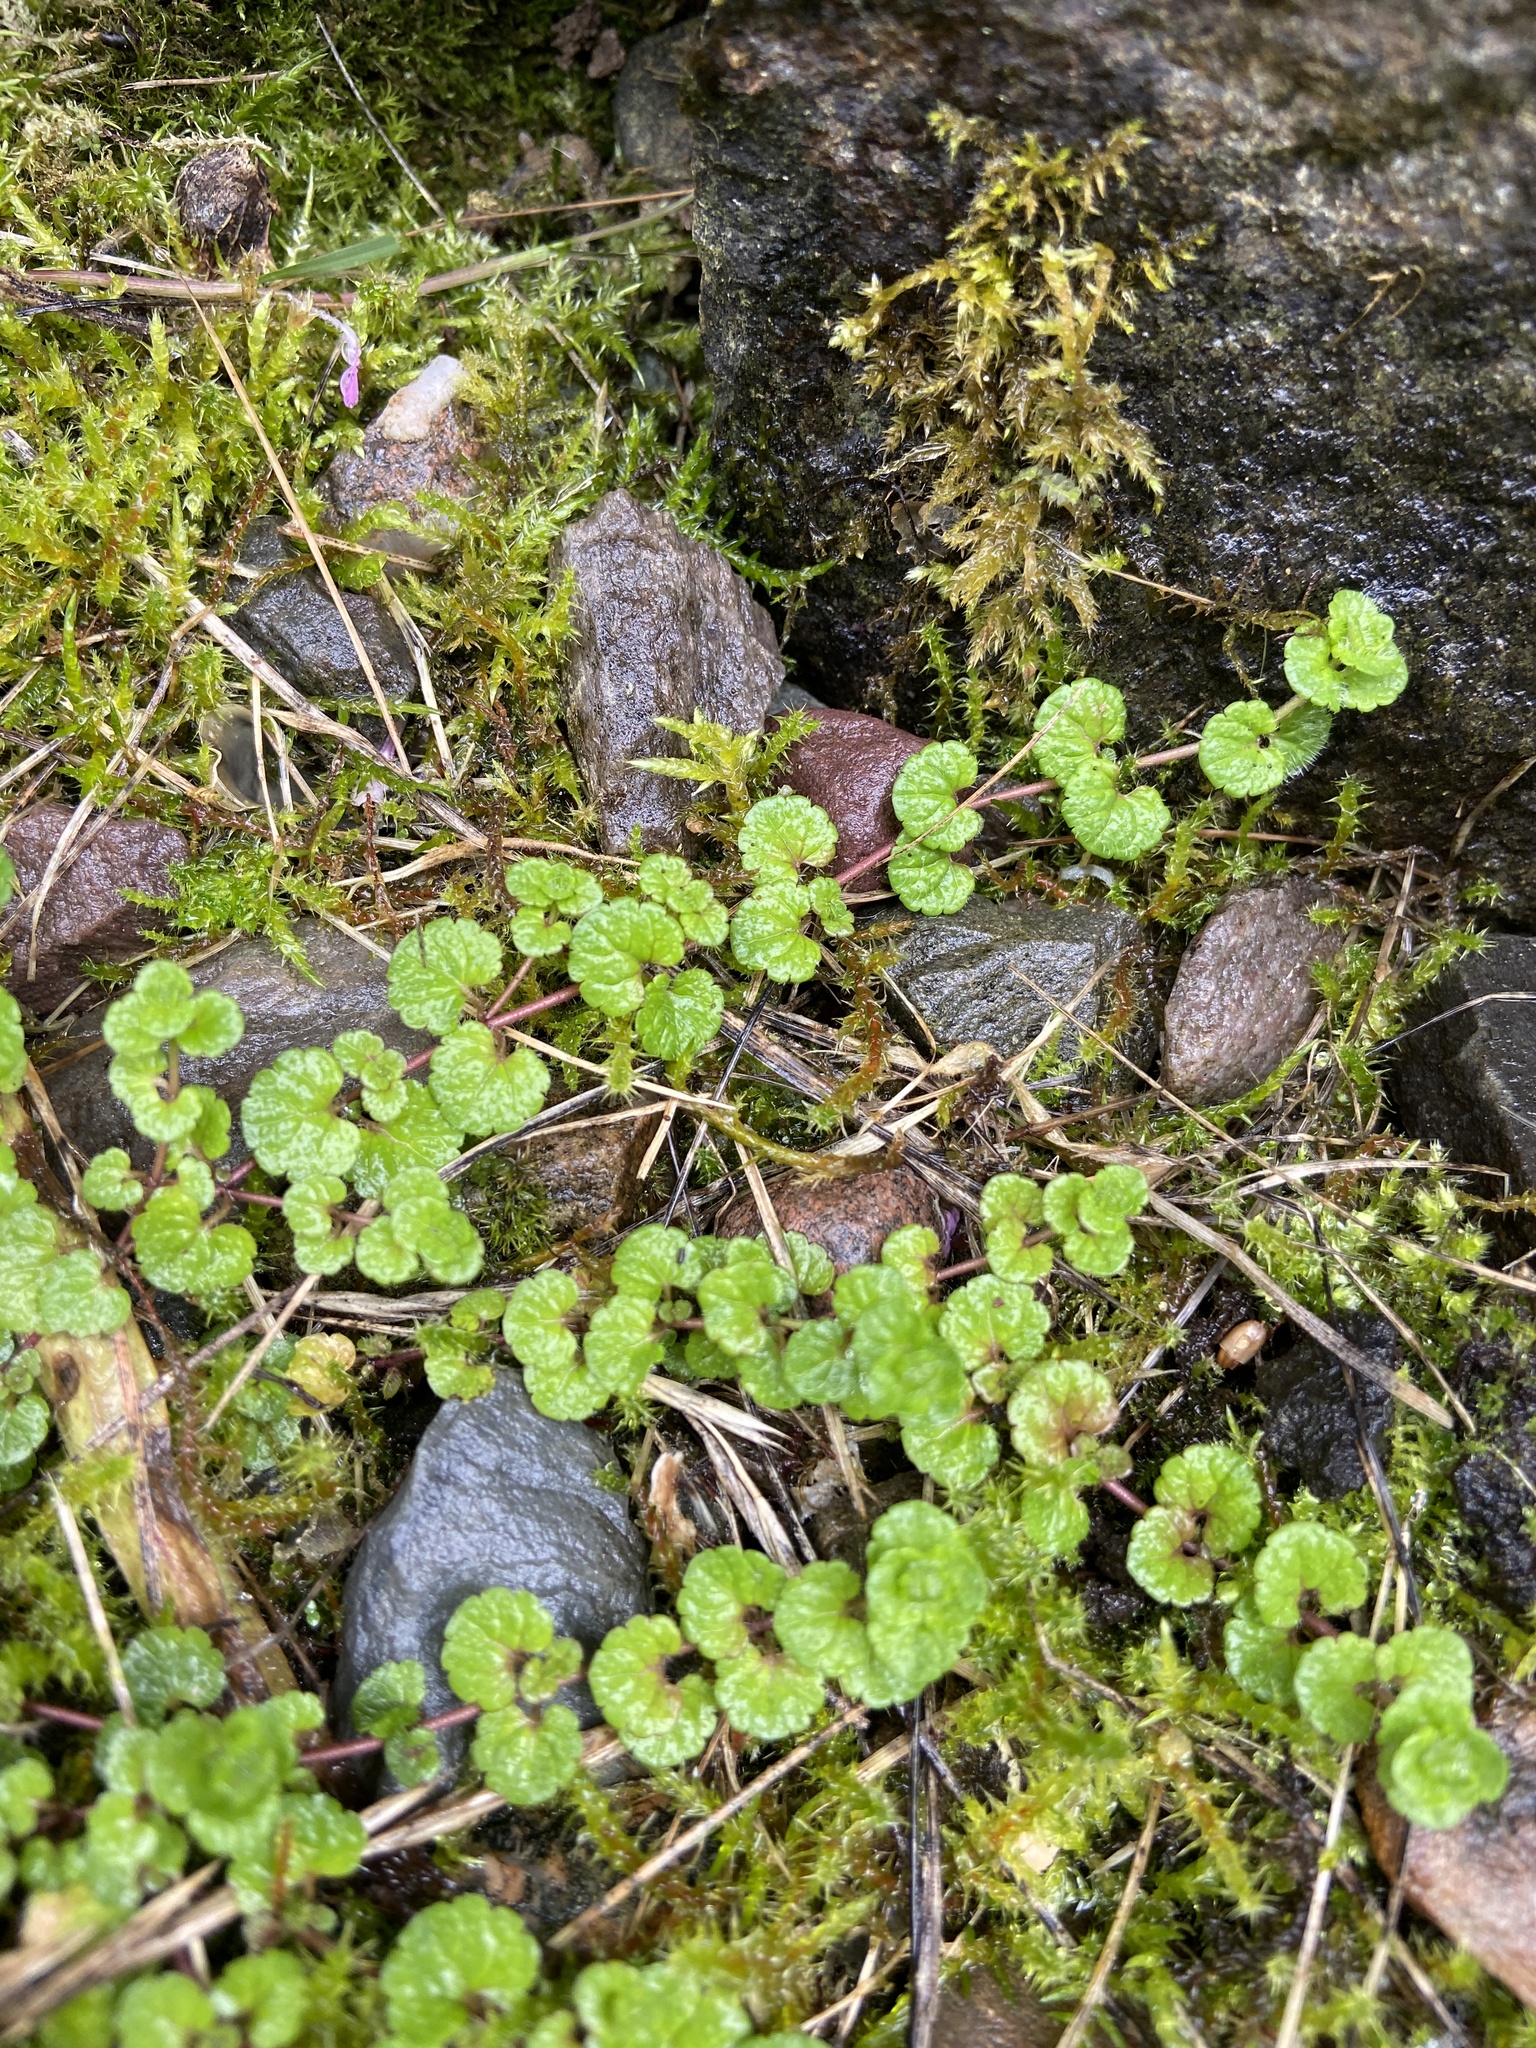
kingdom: Plantae
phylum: Tracheophyta
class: Magnoliopsida
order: Lamiales
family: Plantaginaceae
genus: Veronica
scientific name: Veronica filiformis
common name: Slender speedwell
